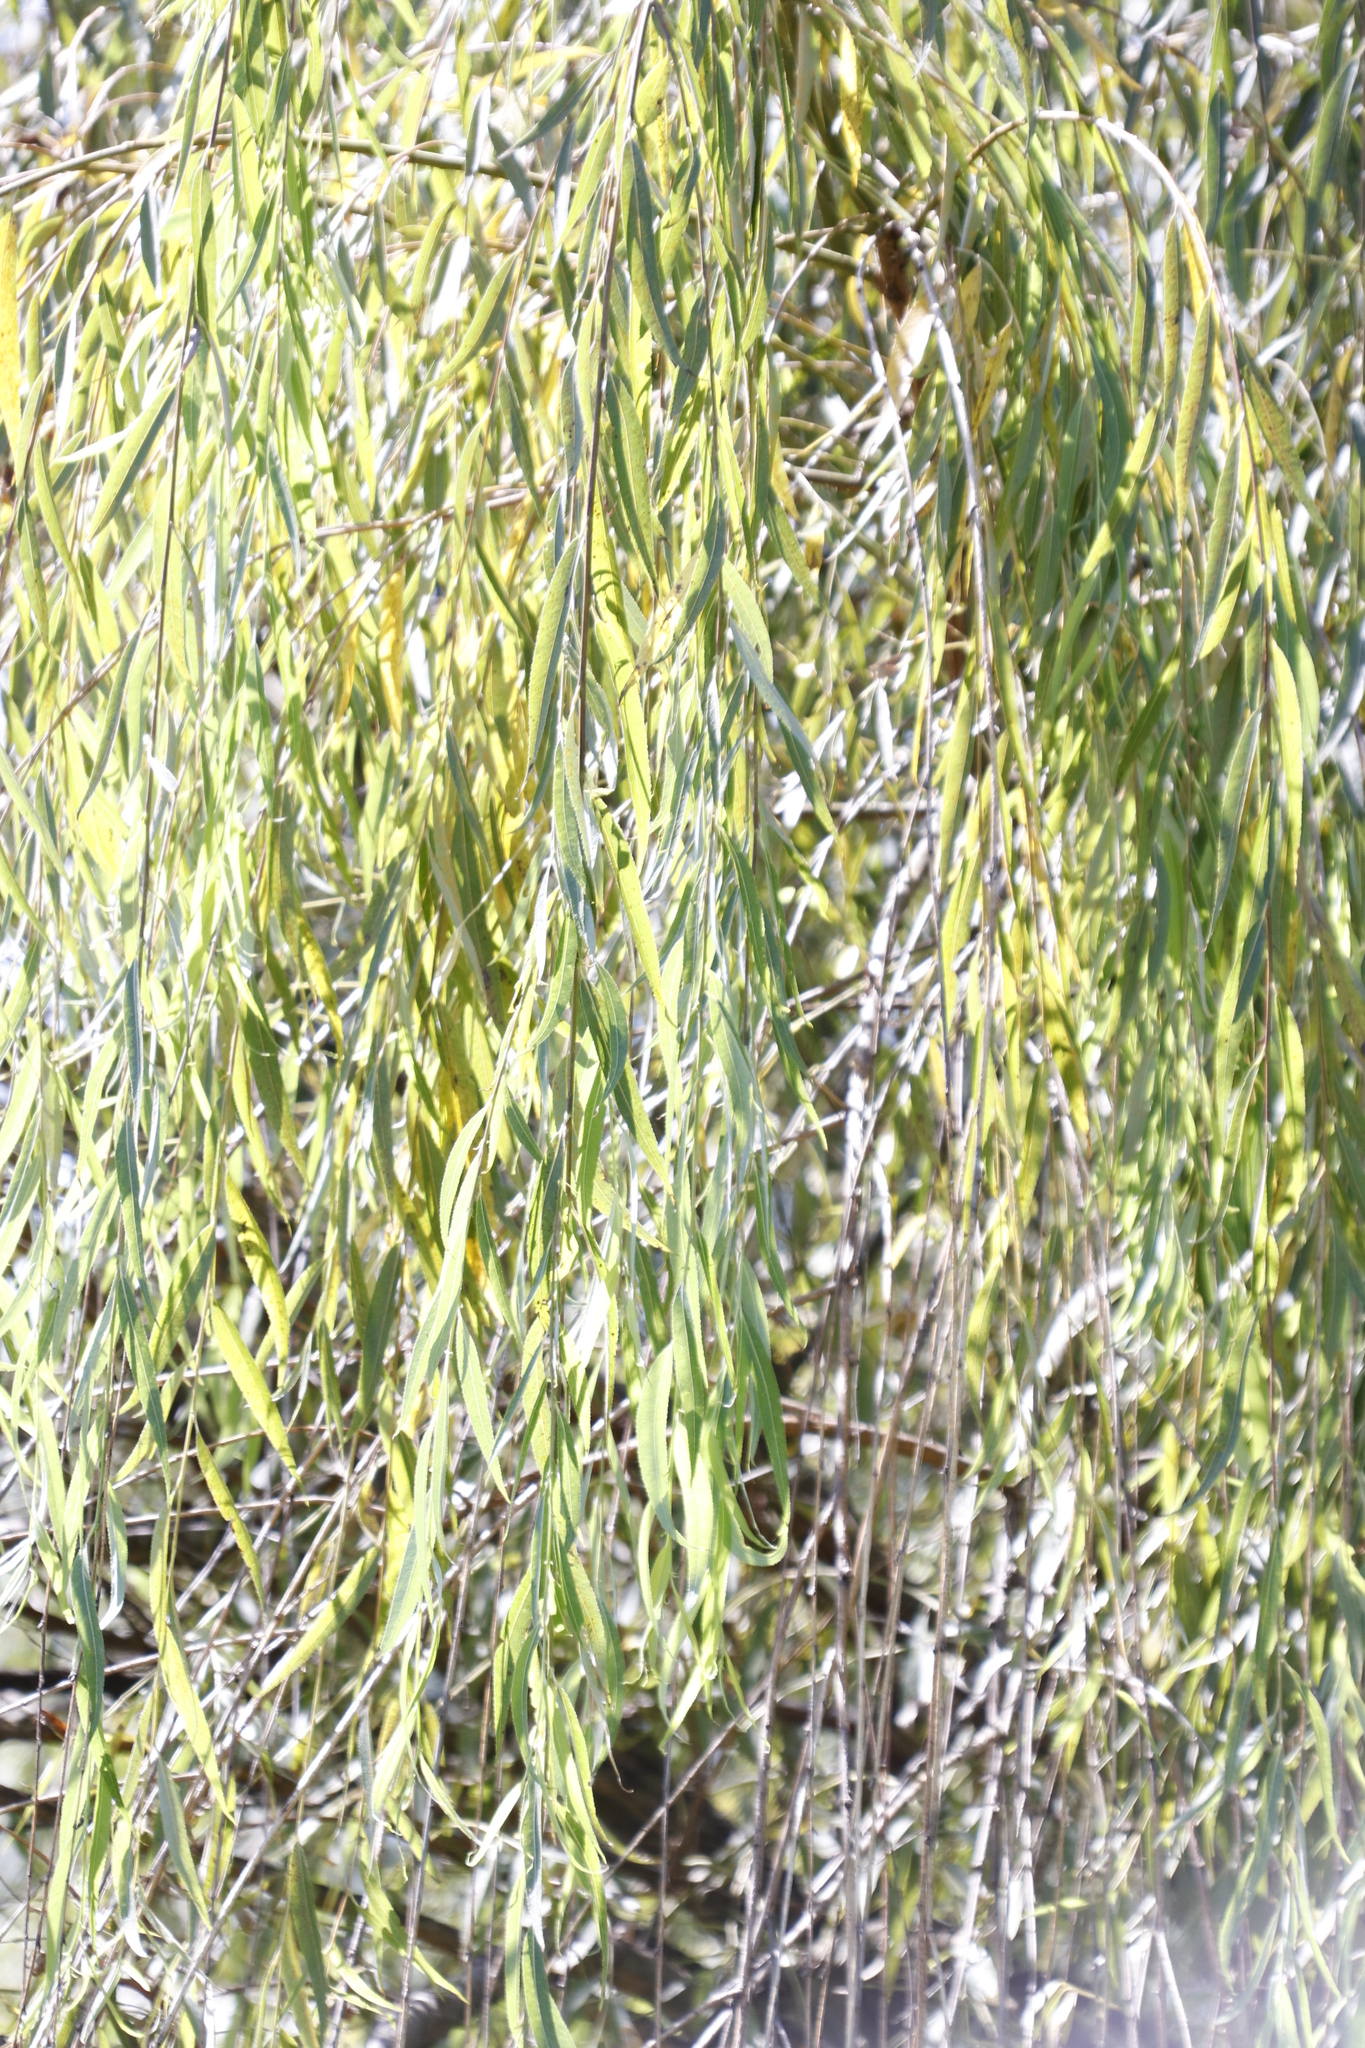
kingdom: Plantae
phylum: Tracheophyta
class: Magnoliopsida
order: Malpighiales
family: Salicaceae
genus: Salix
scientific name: Salix babylonica
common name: Weeping willow
